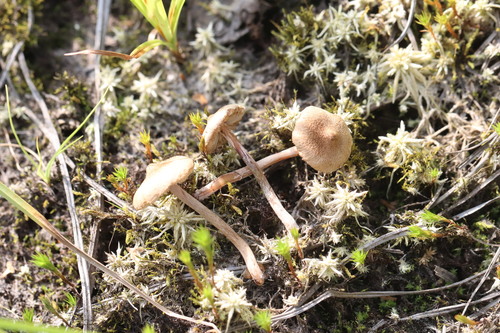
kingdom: Fungi
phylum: Basidiomycota
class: Agaricomycetes
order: Agaricales
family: Inocybaceae
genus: Inocybe
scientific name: Inocybe
